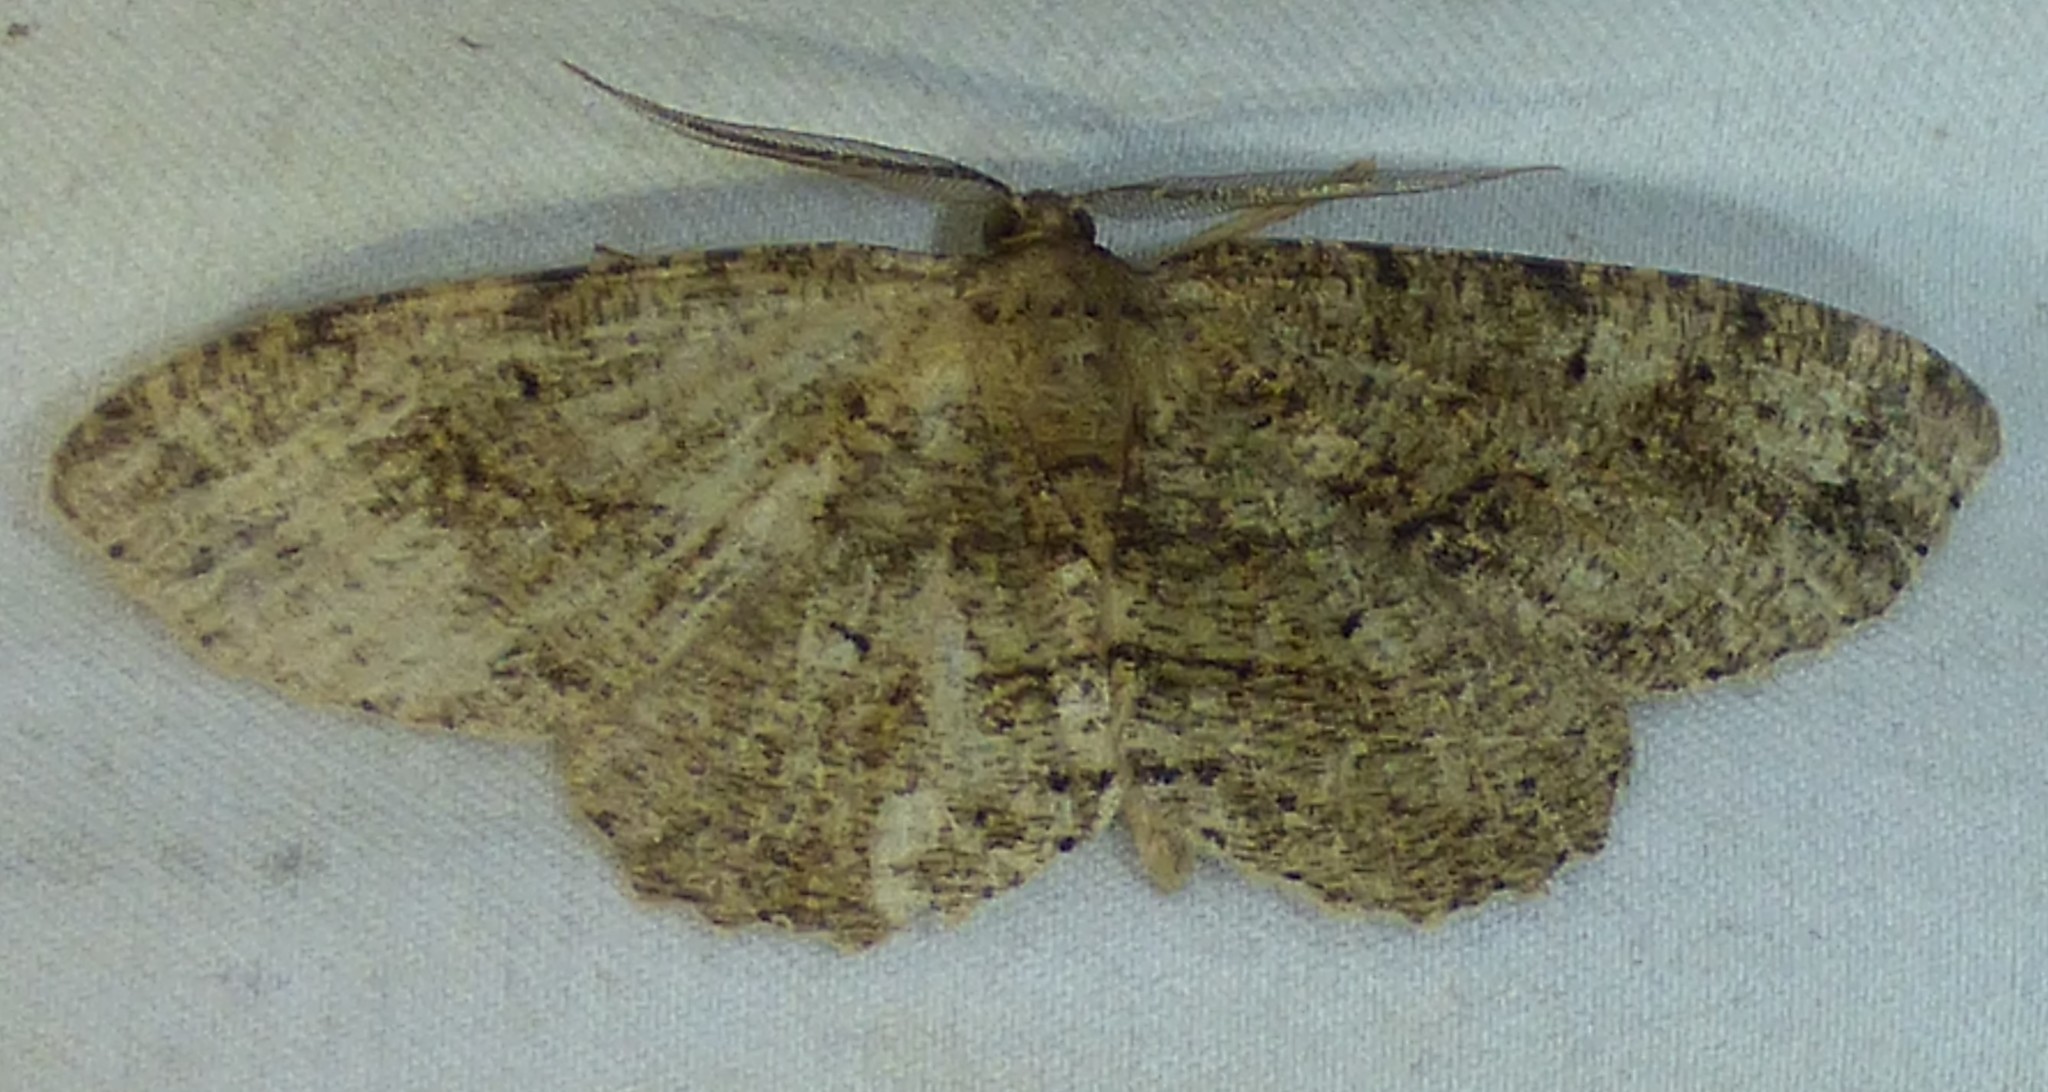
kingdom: Animalia
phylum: Arthropoda
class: Insecta
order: Lepidoptera
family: Geometridae
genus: Melanolophia
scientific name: Melanolophia canadaria
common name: Canadian melanolophia
